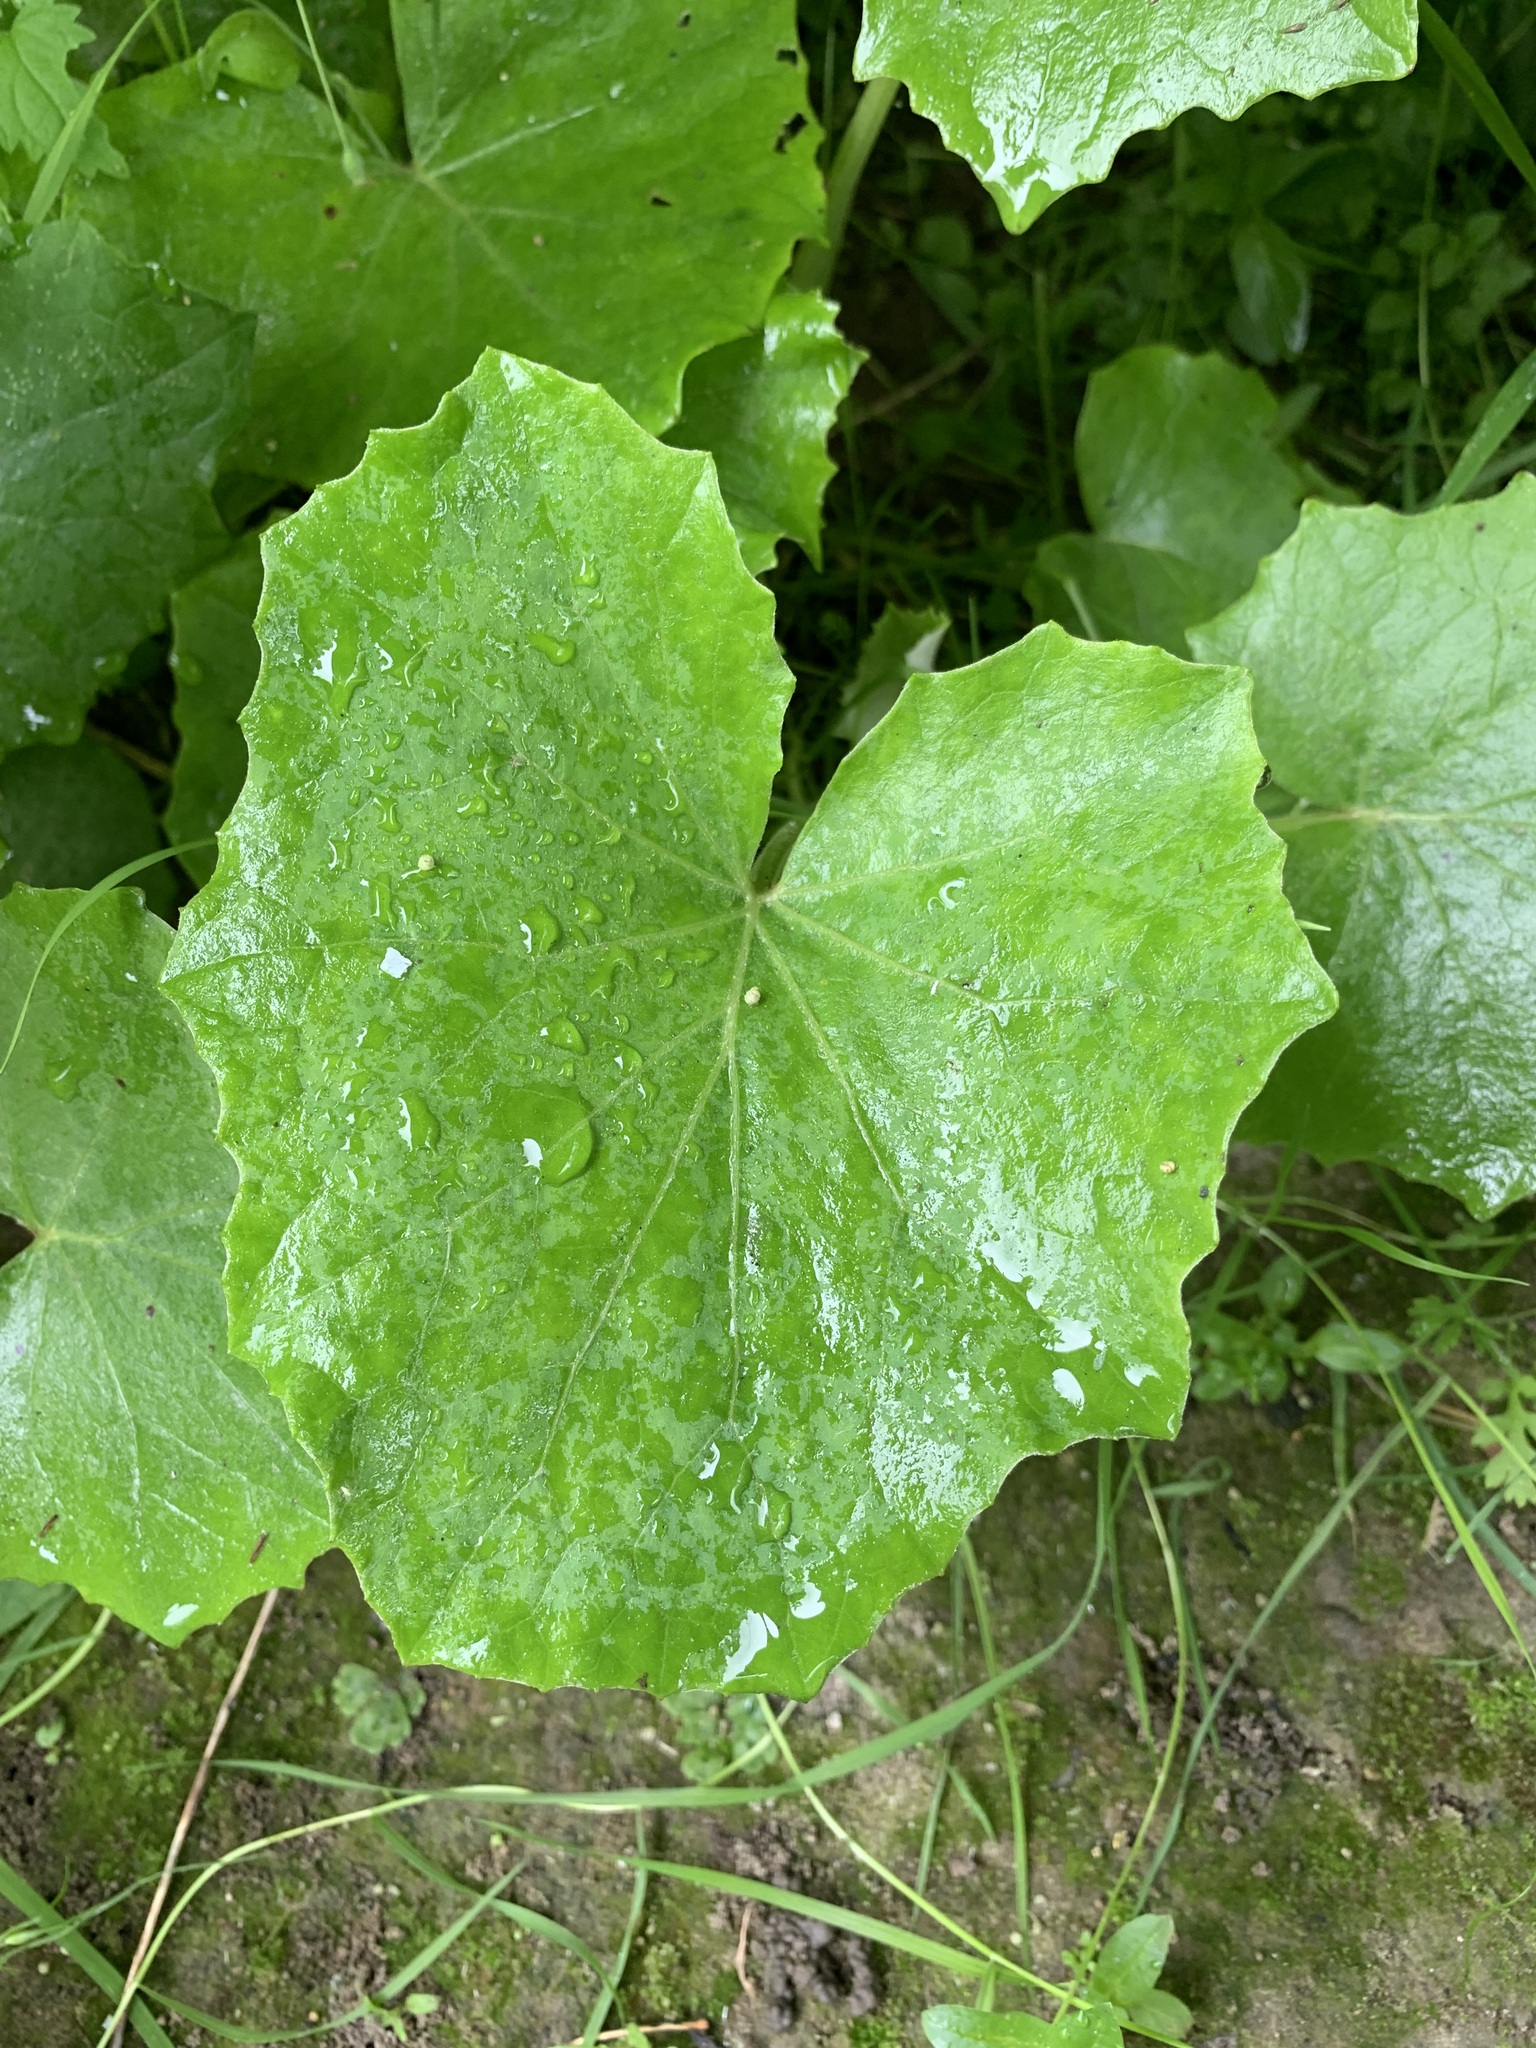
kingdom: Plantae
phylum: Tracheophyta
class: Magnoliopsida
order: Asterales
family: Asteraceae
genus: Tussilago
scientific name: Tussilago farfara
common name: Coltsfoot
